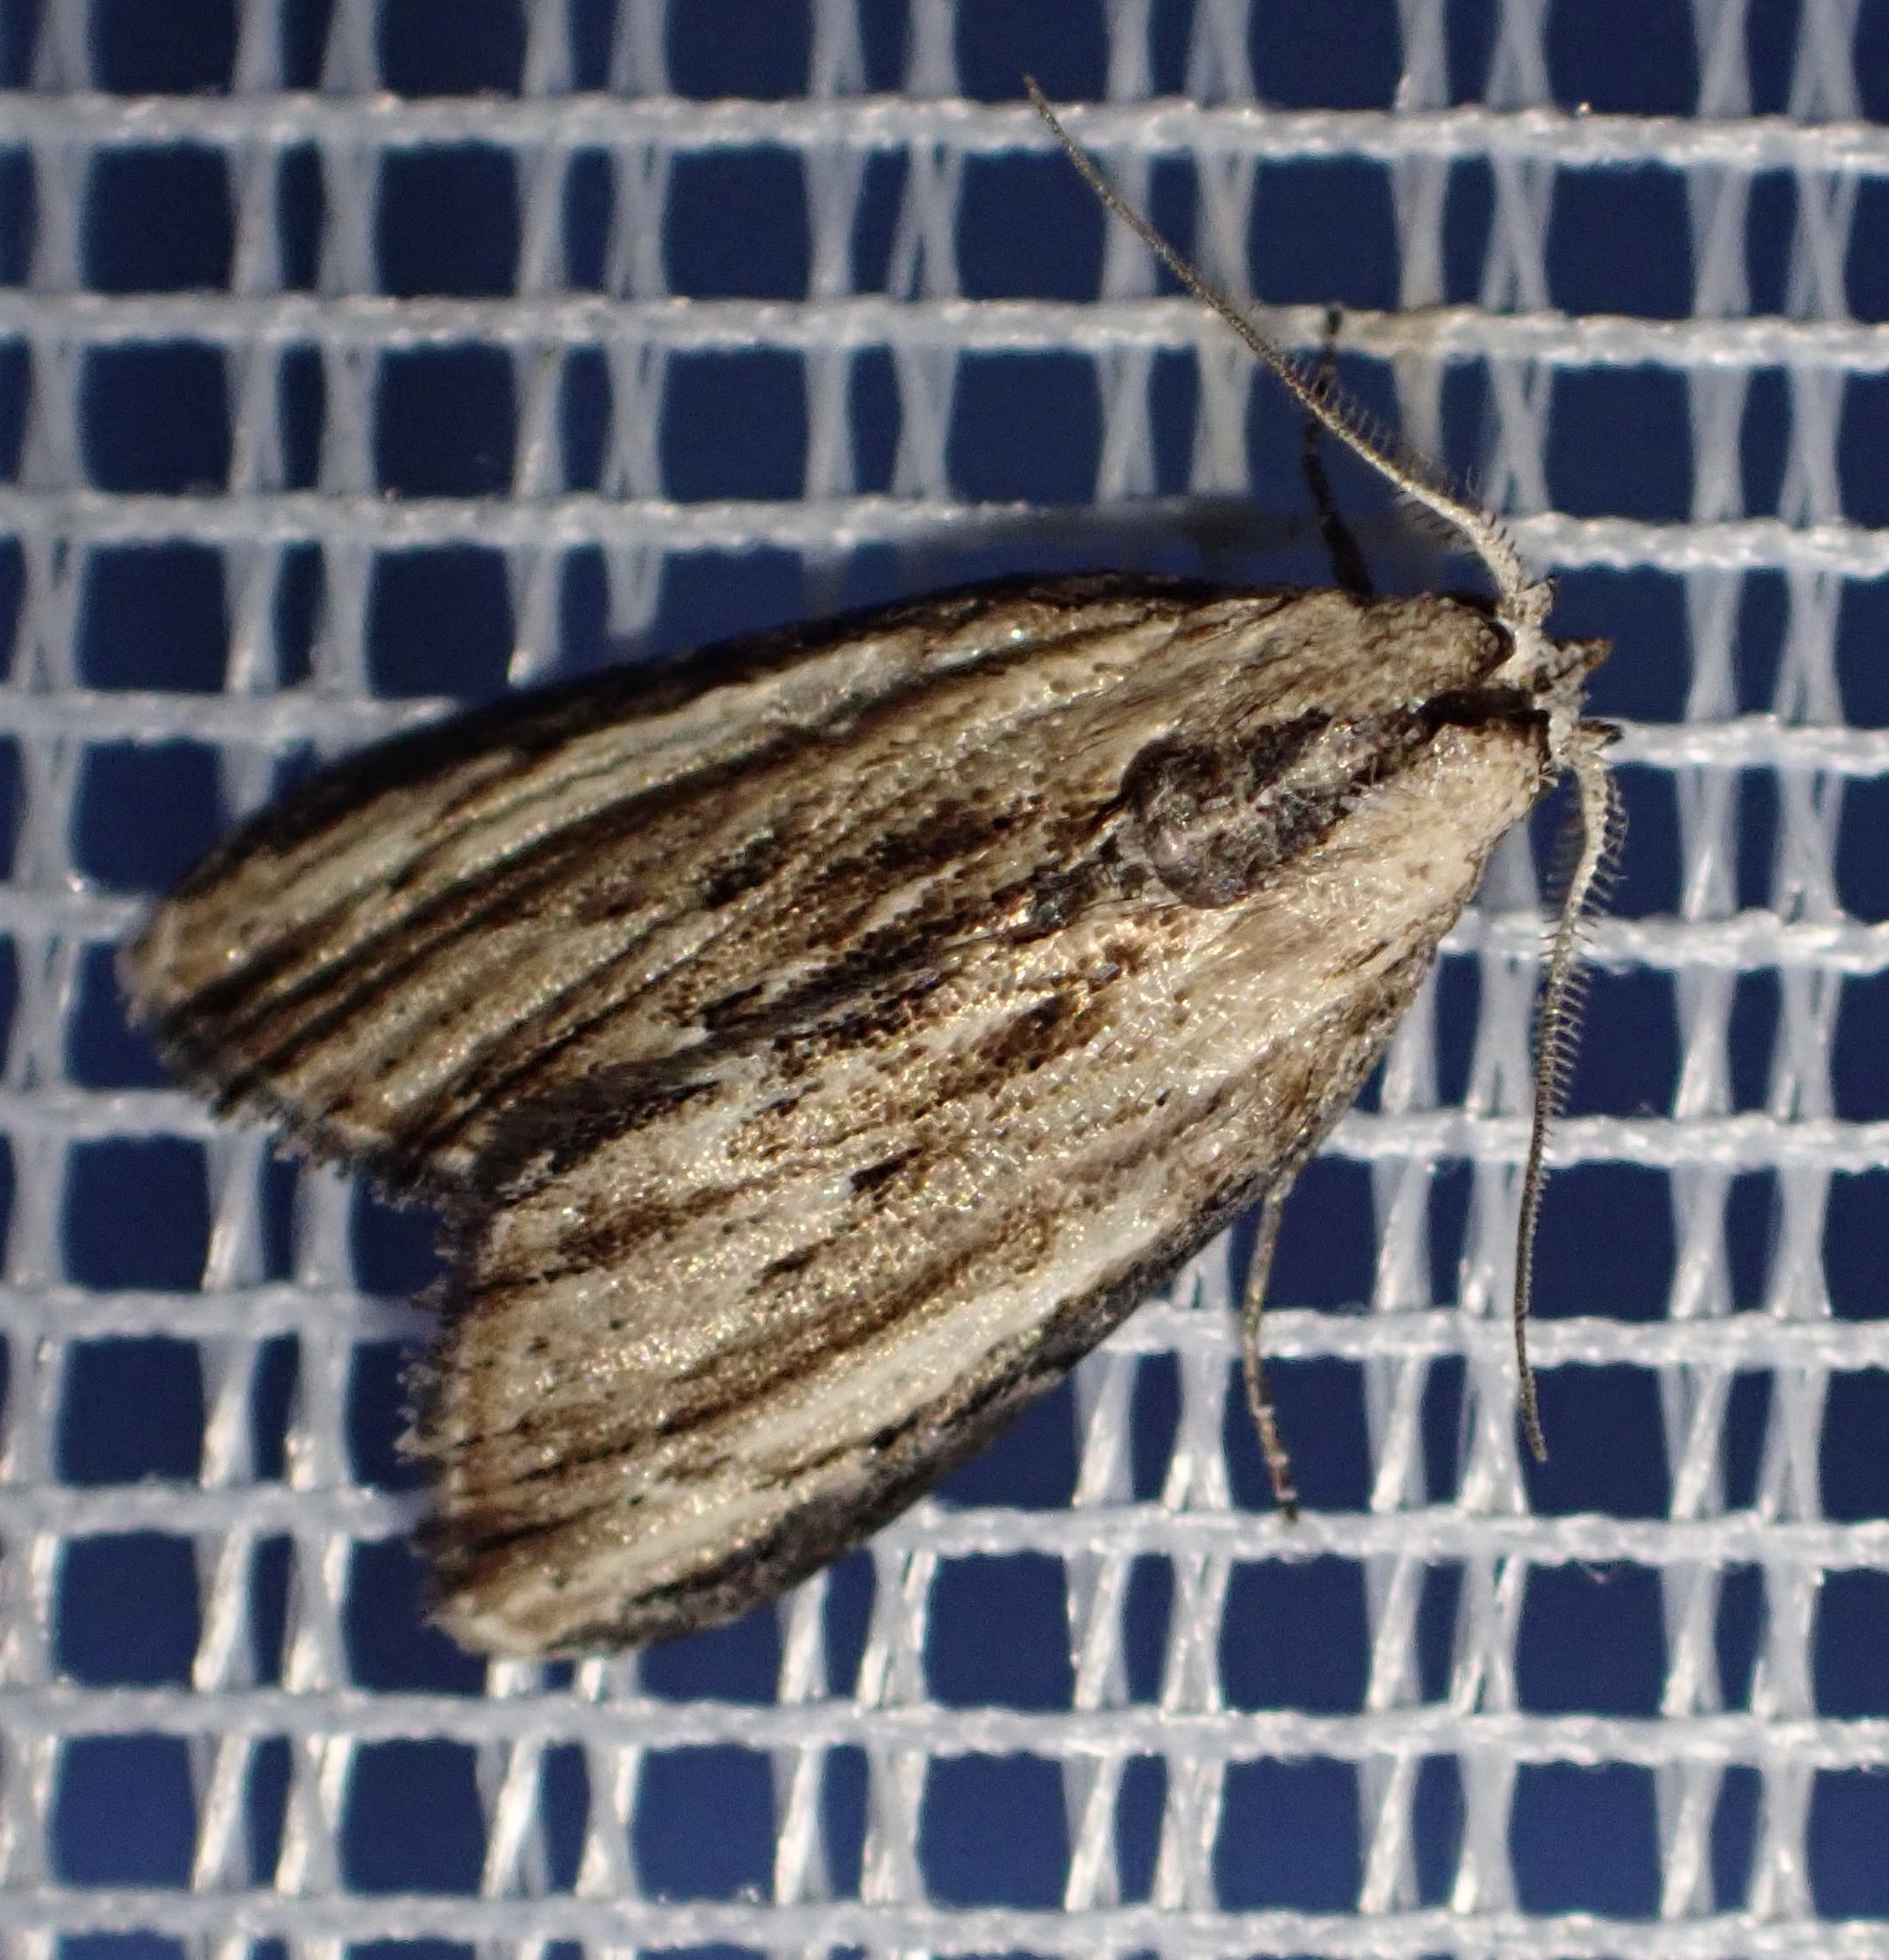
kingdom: Animalia
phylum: Arthropoda
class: Insecta
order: Lepidoptera
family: Nolidae
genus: Sarbena
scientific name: Sarbena hollowayi
